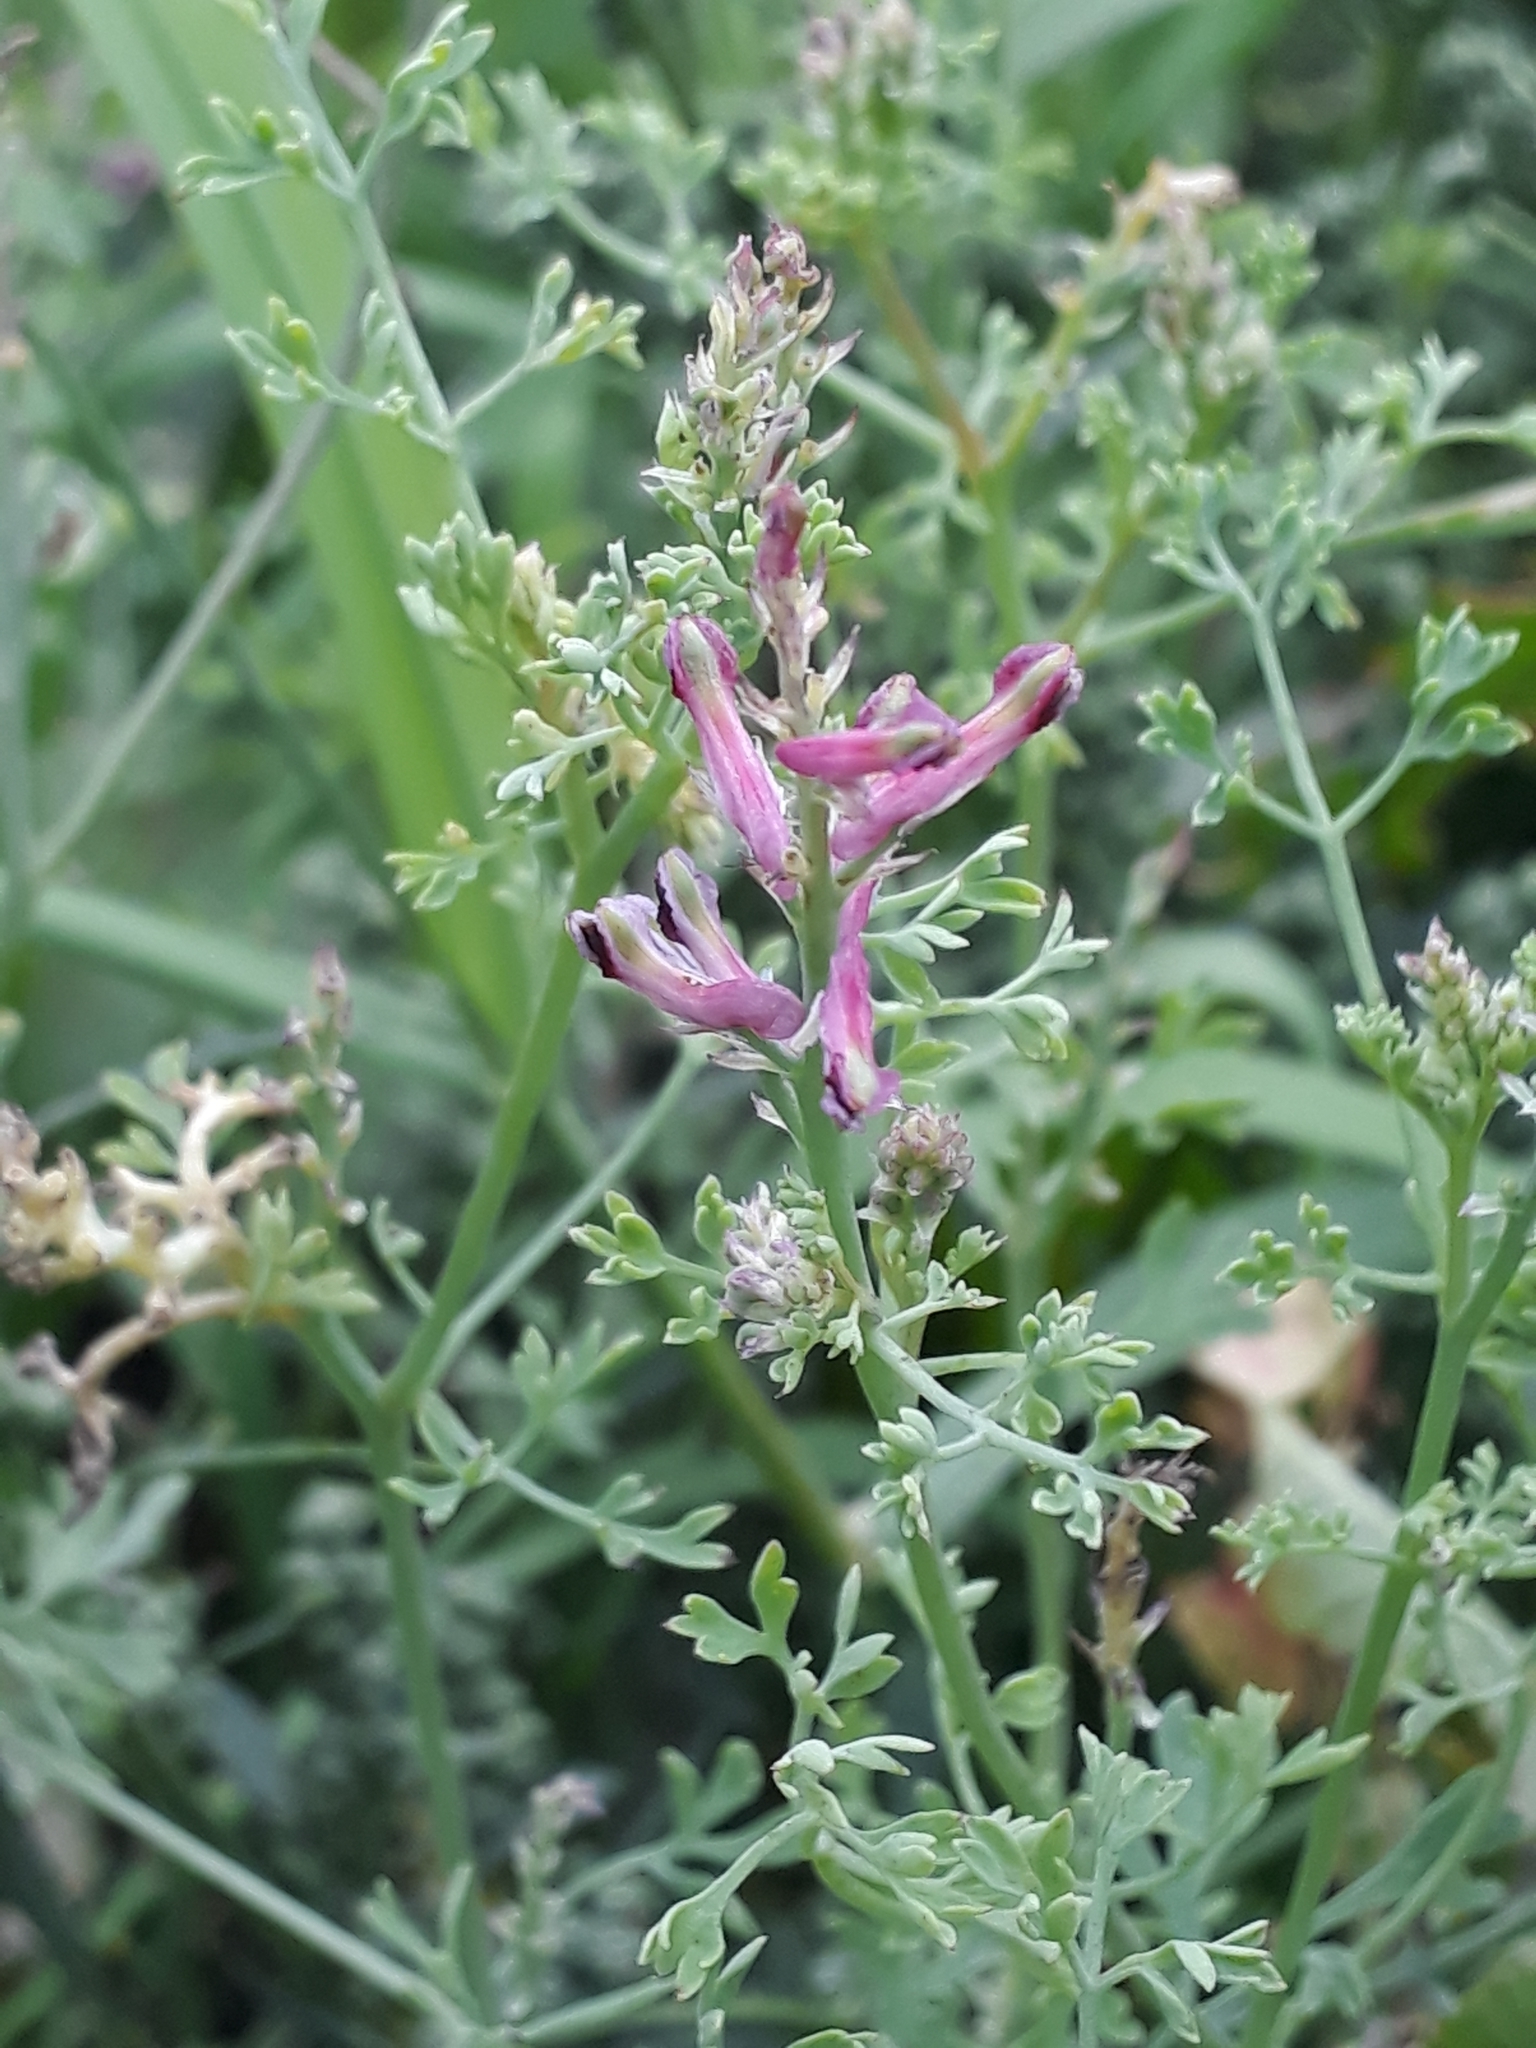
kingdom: Plantae
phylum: Tracheophyta
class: Magnoliopsida
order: Ranunculales
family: Papaveraceae
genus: Fumaria
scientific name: Fumaria officinalis
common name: Common fumitory
